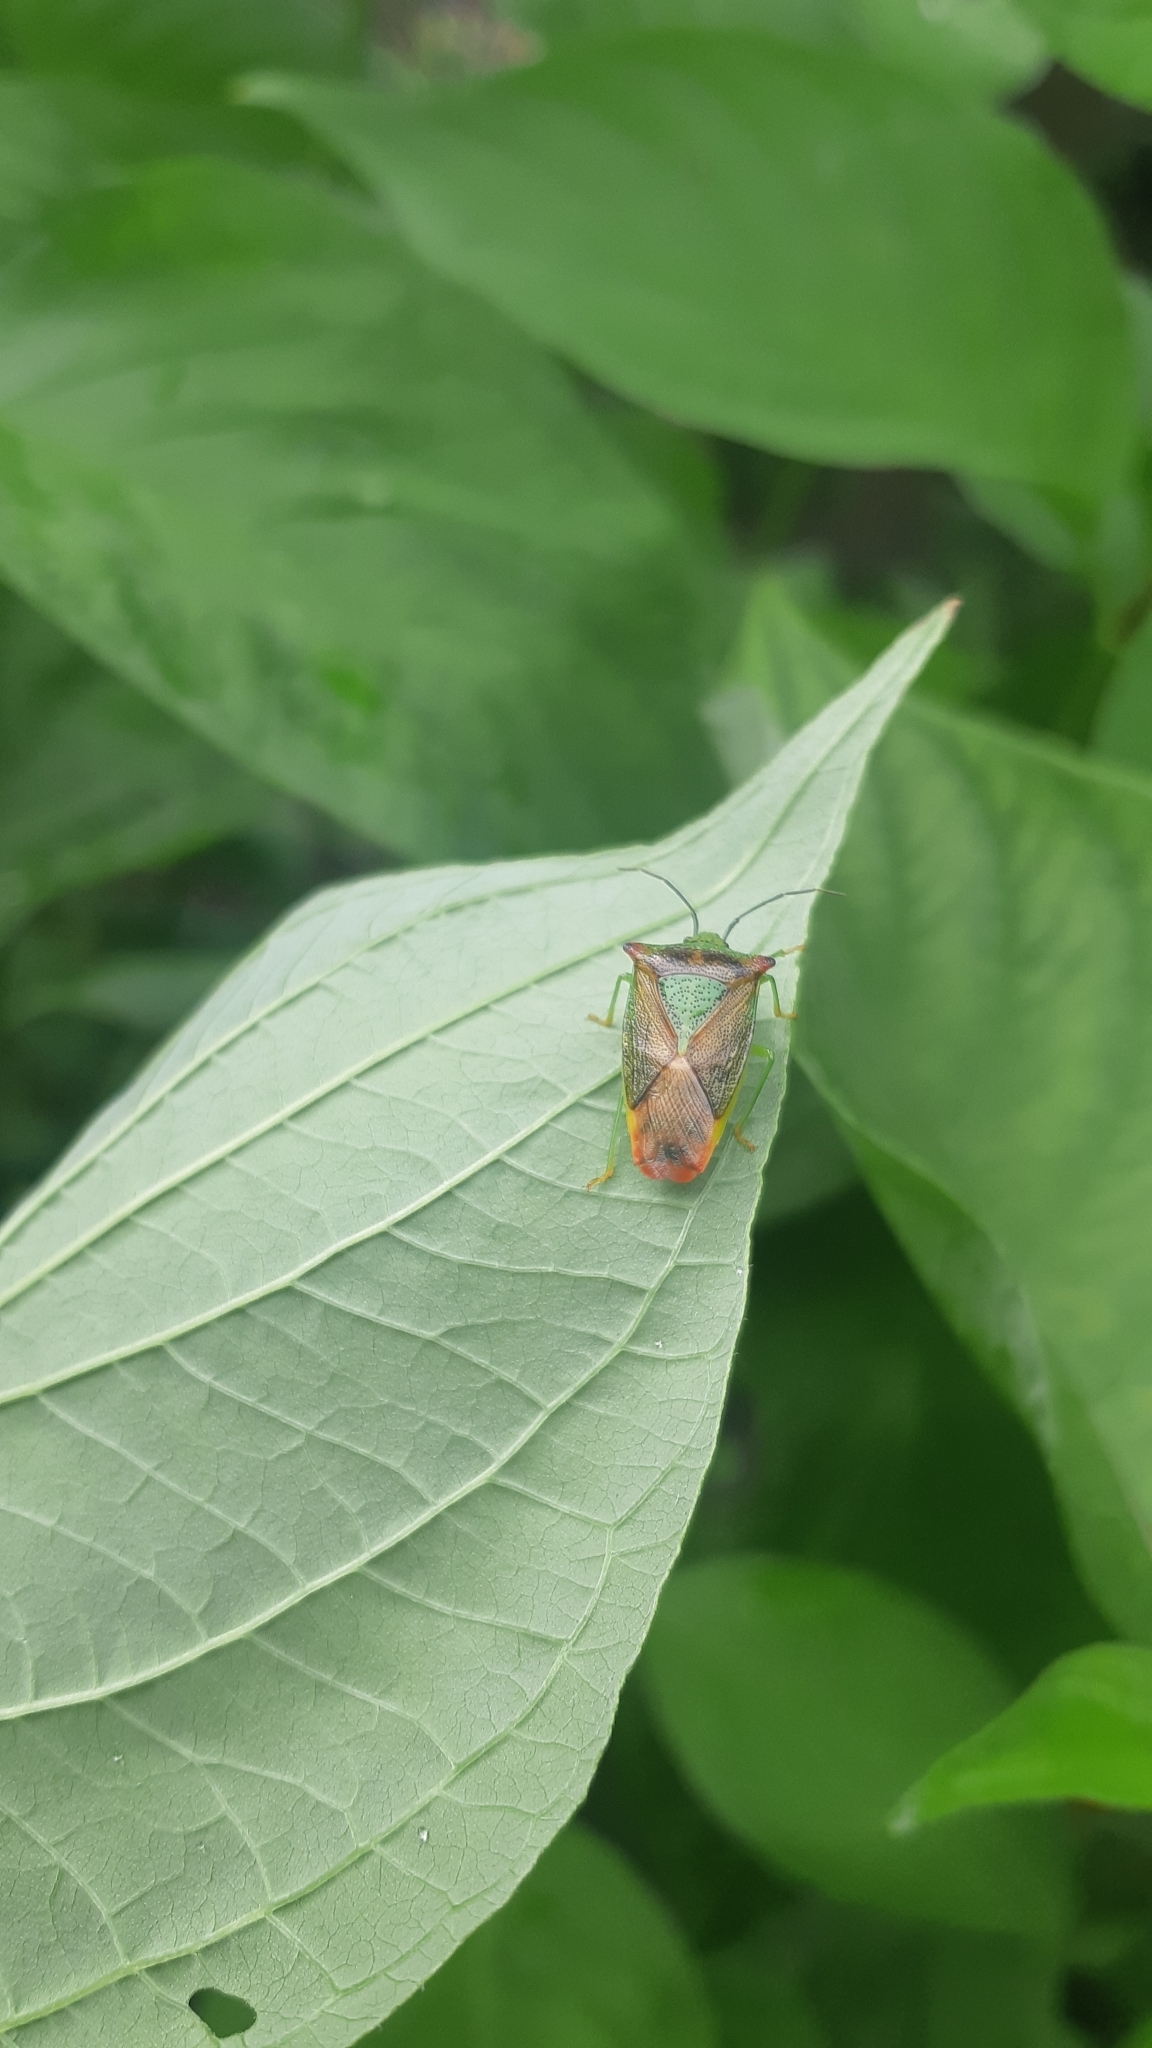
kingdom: Animalia
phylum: Arthropoda
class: Insecta
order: Hemiptera
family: Acanthosomatidae
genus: Acanthosoma
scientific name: Acanthosoma haemorrhoidale
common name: Hawthorn shieldbug
